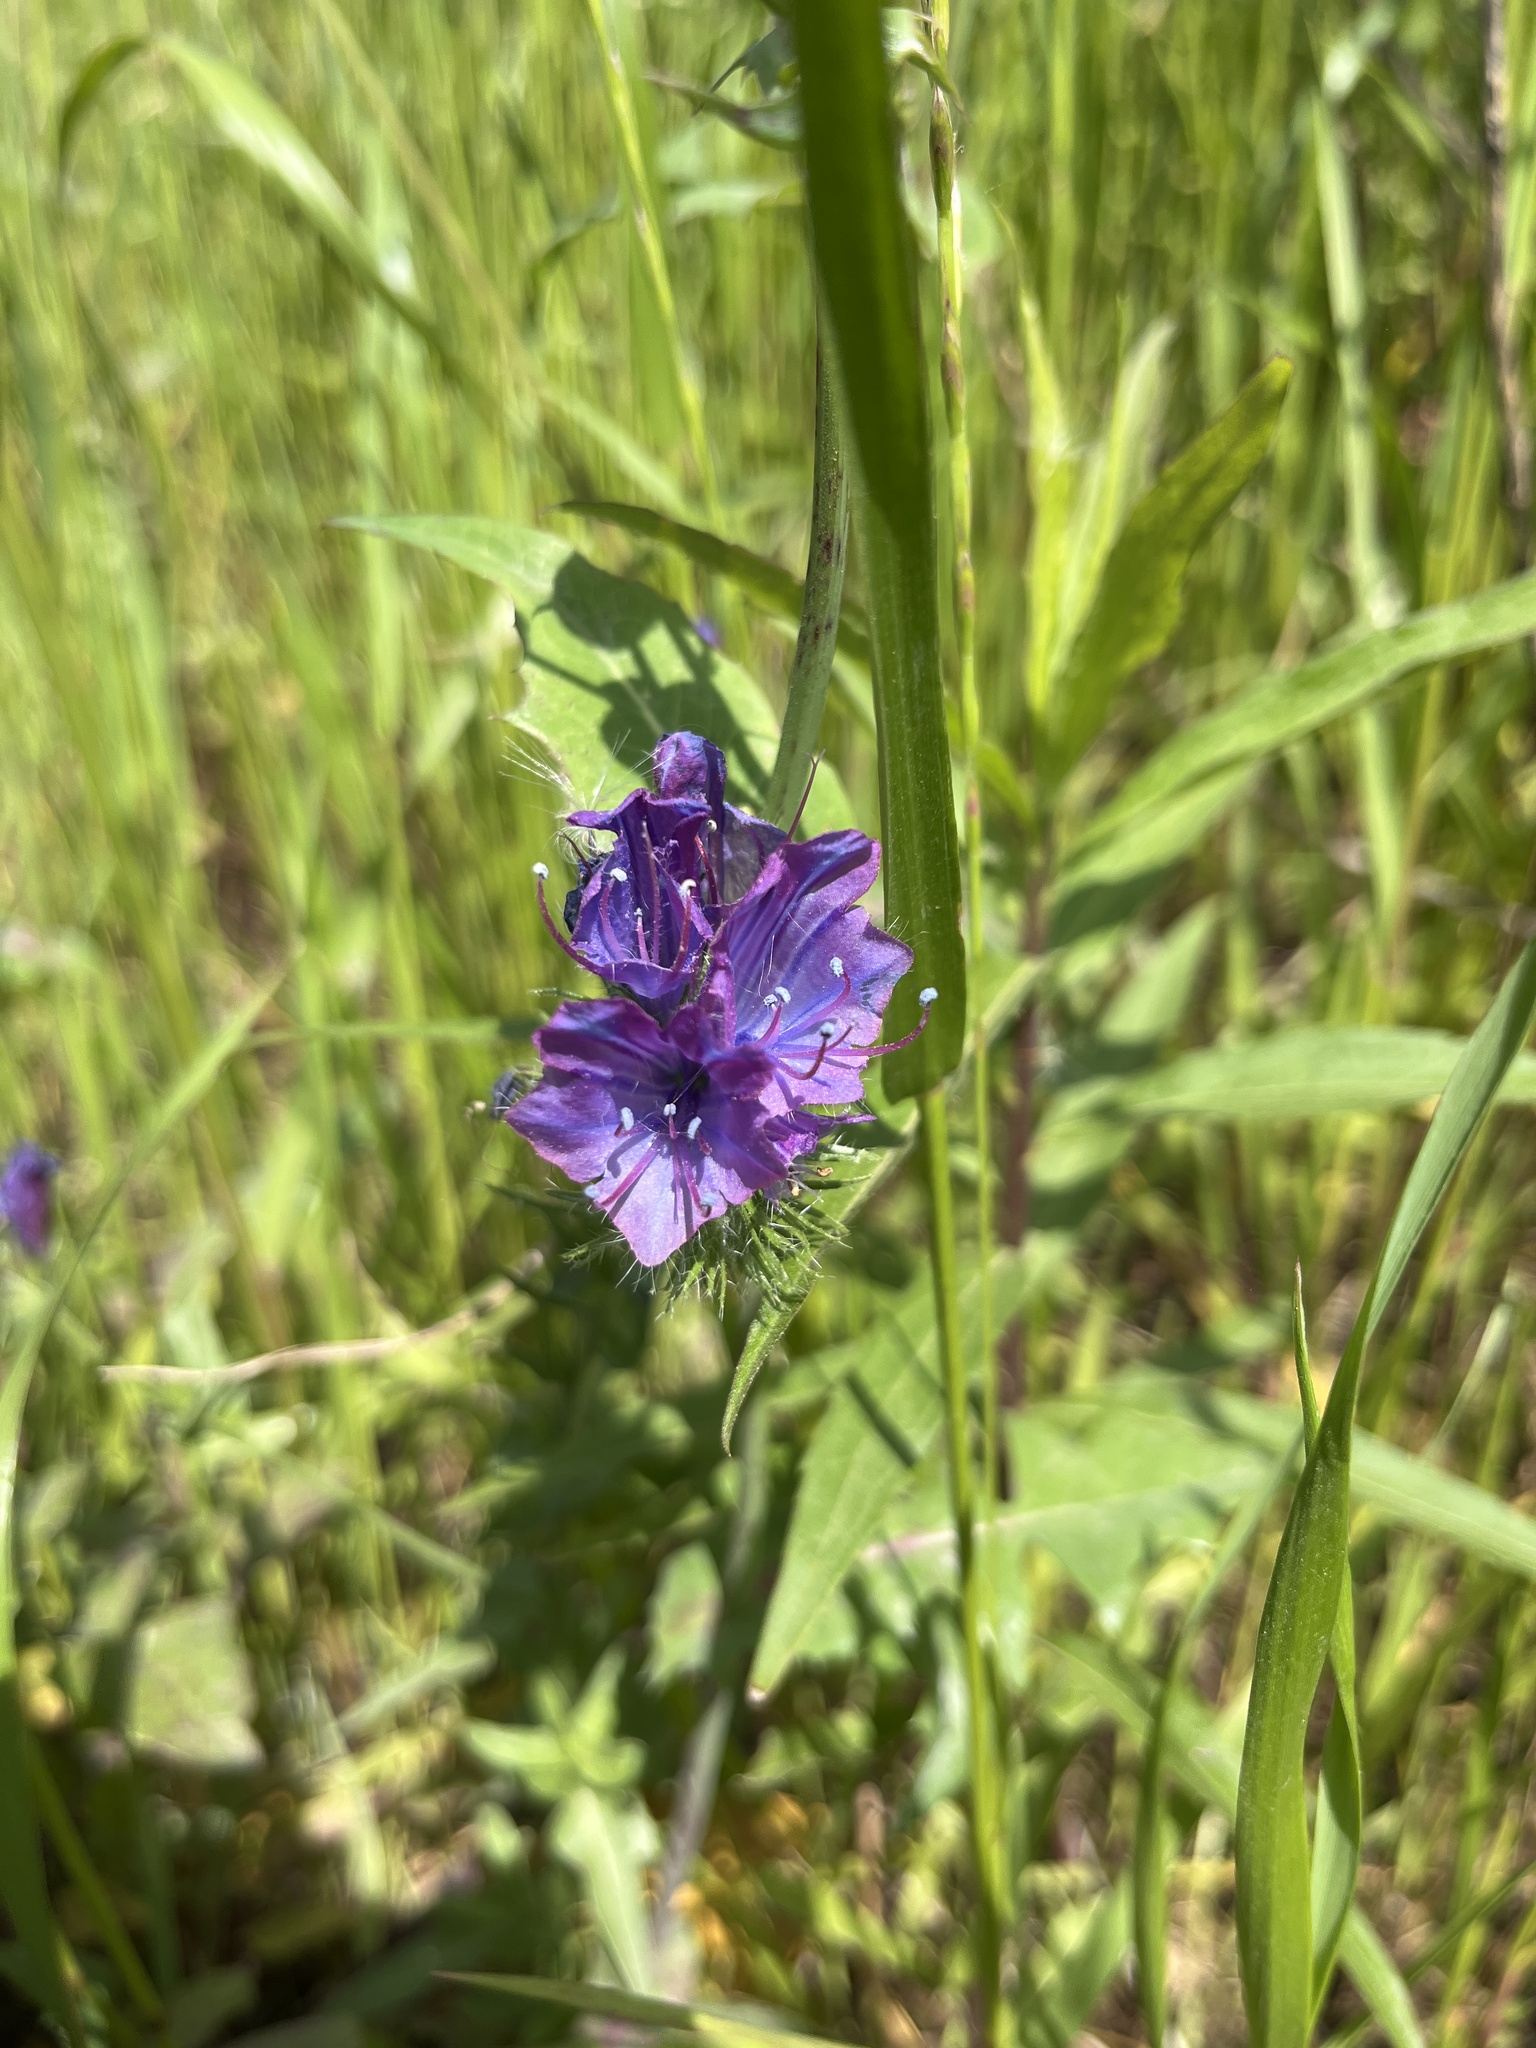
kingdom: Plantae
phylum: Tracheophyta
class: Magnoliopsida
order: Boraginales
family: Boraginaceae
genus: Echium
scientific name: Echium plantagineum
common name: Purple viper's-bugloss
